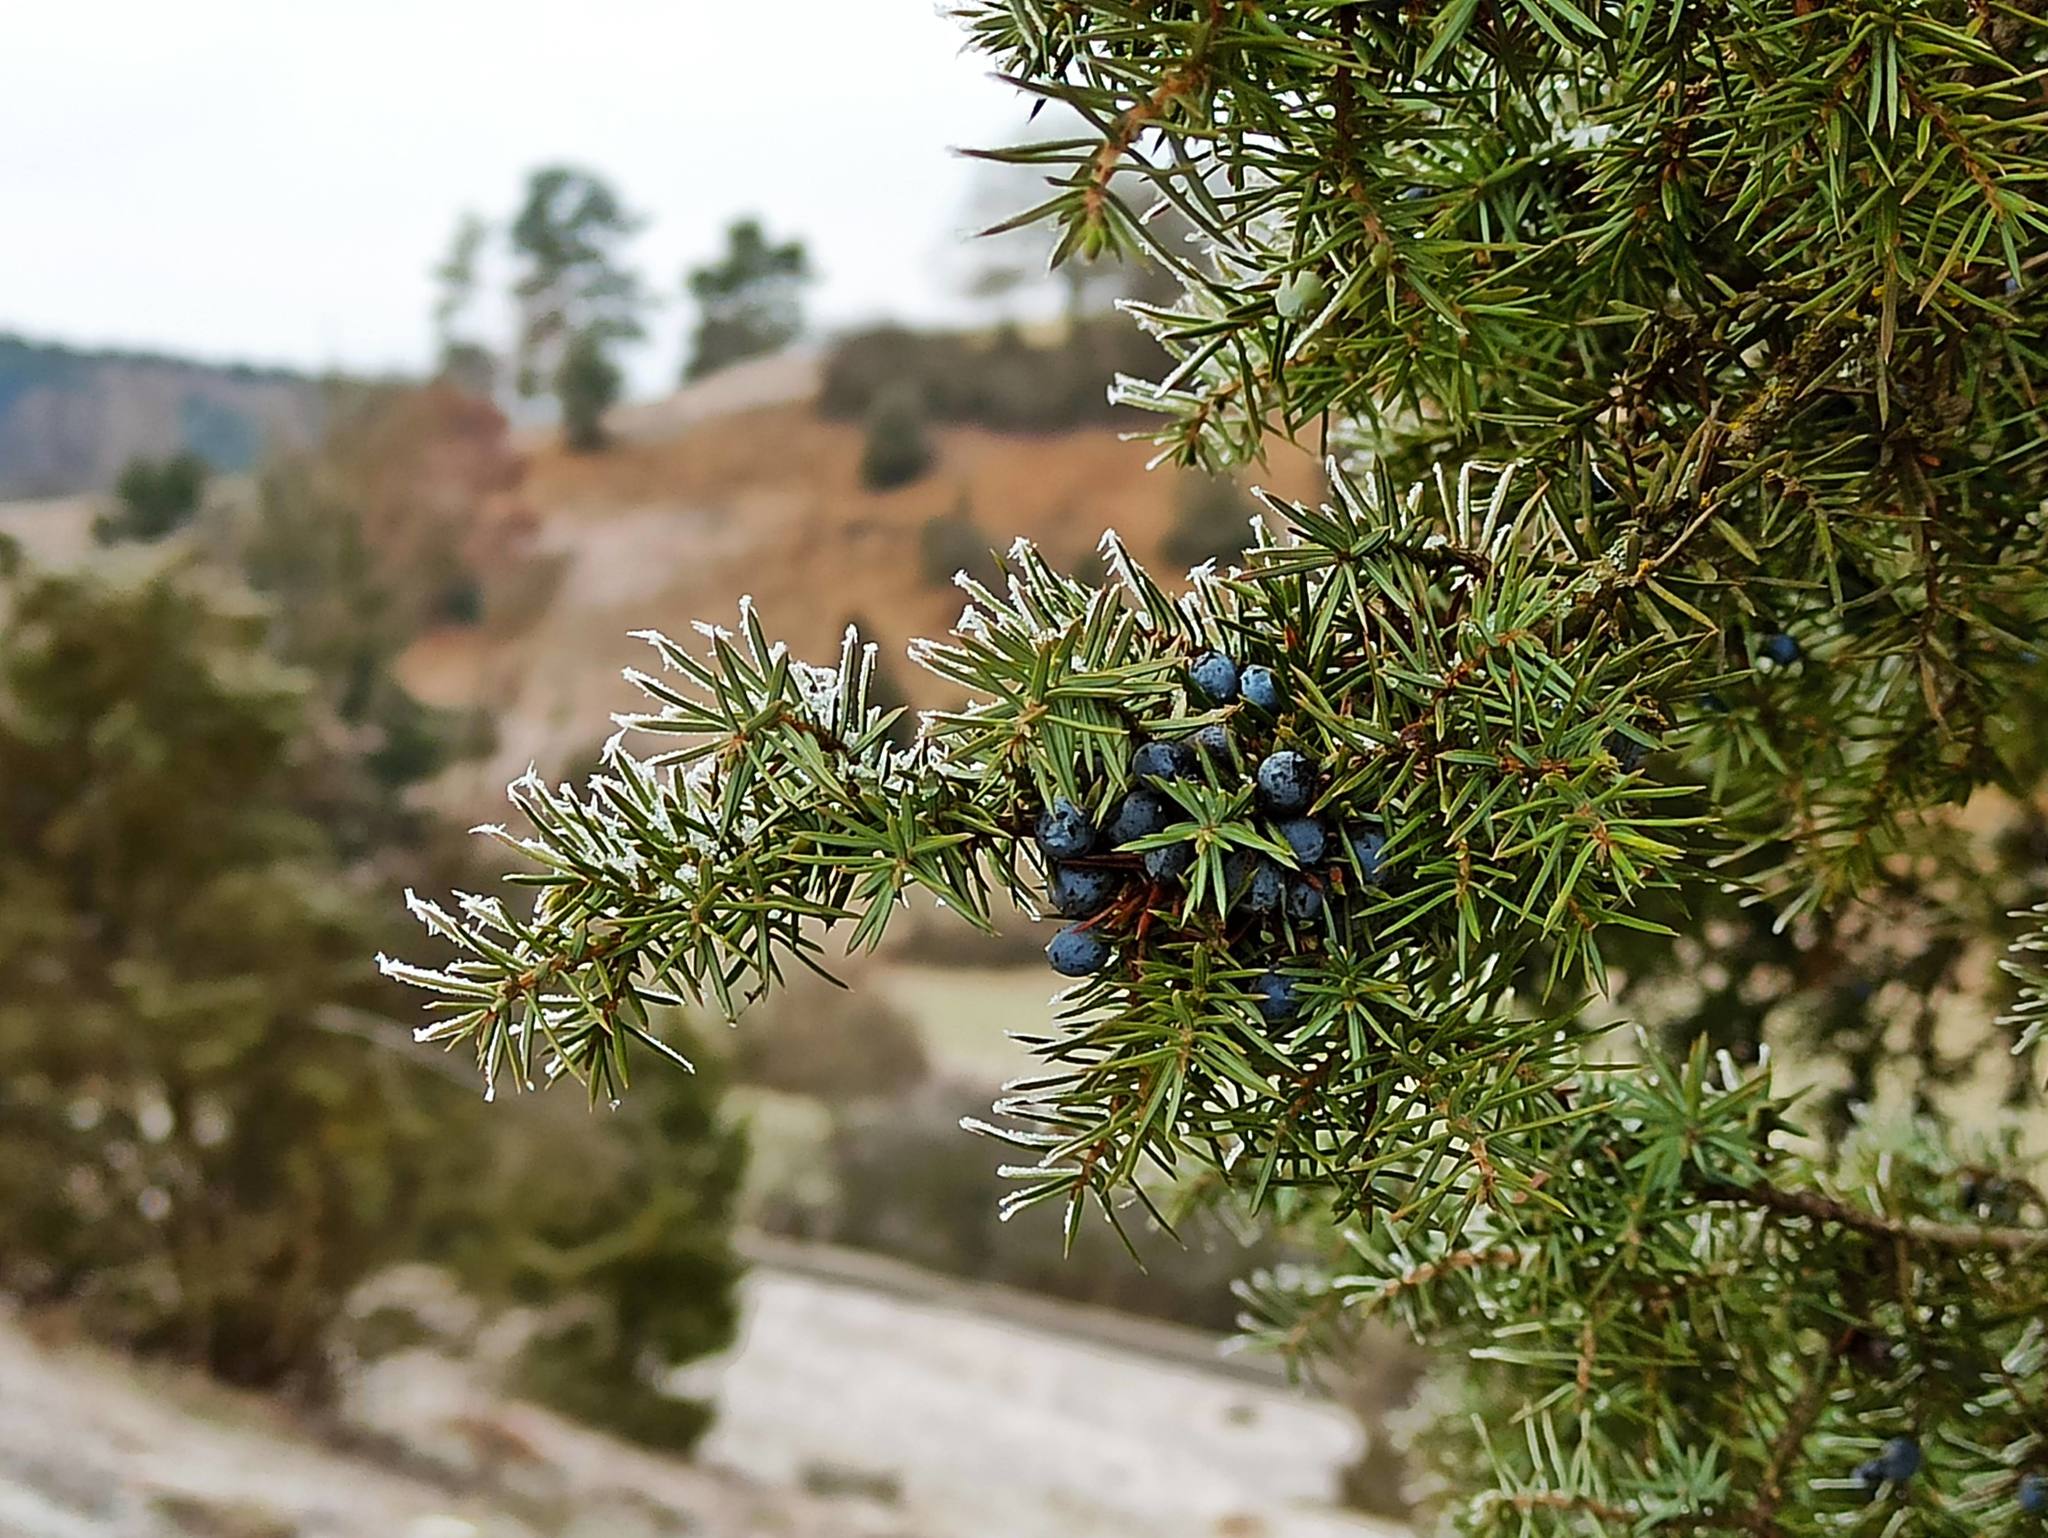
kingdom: Plantae
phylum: Tracheophyta
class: Pinopsida
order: Pinales
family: Cupressaceae
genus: Juniperus
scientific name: Juniperus communis
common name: Common juniper
